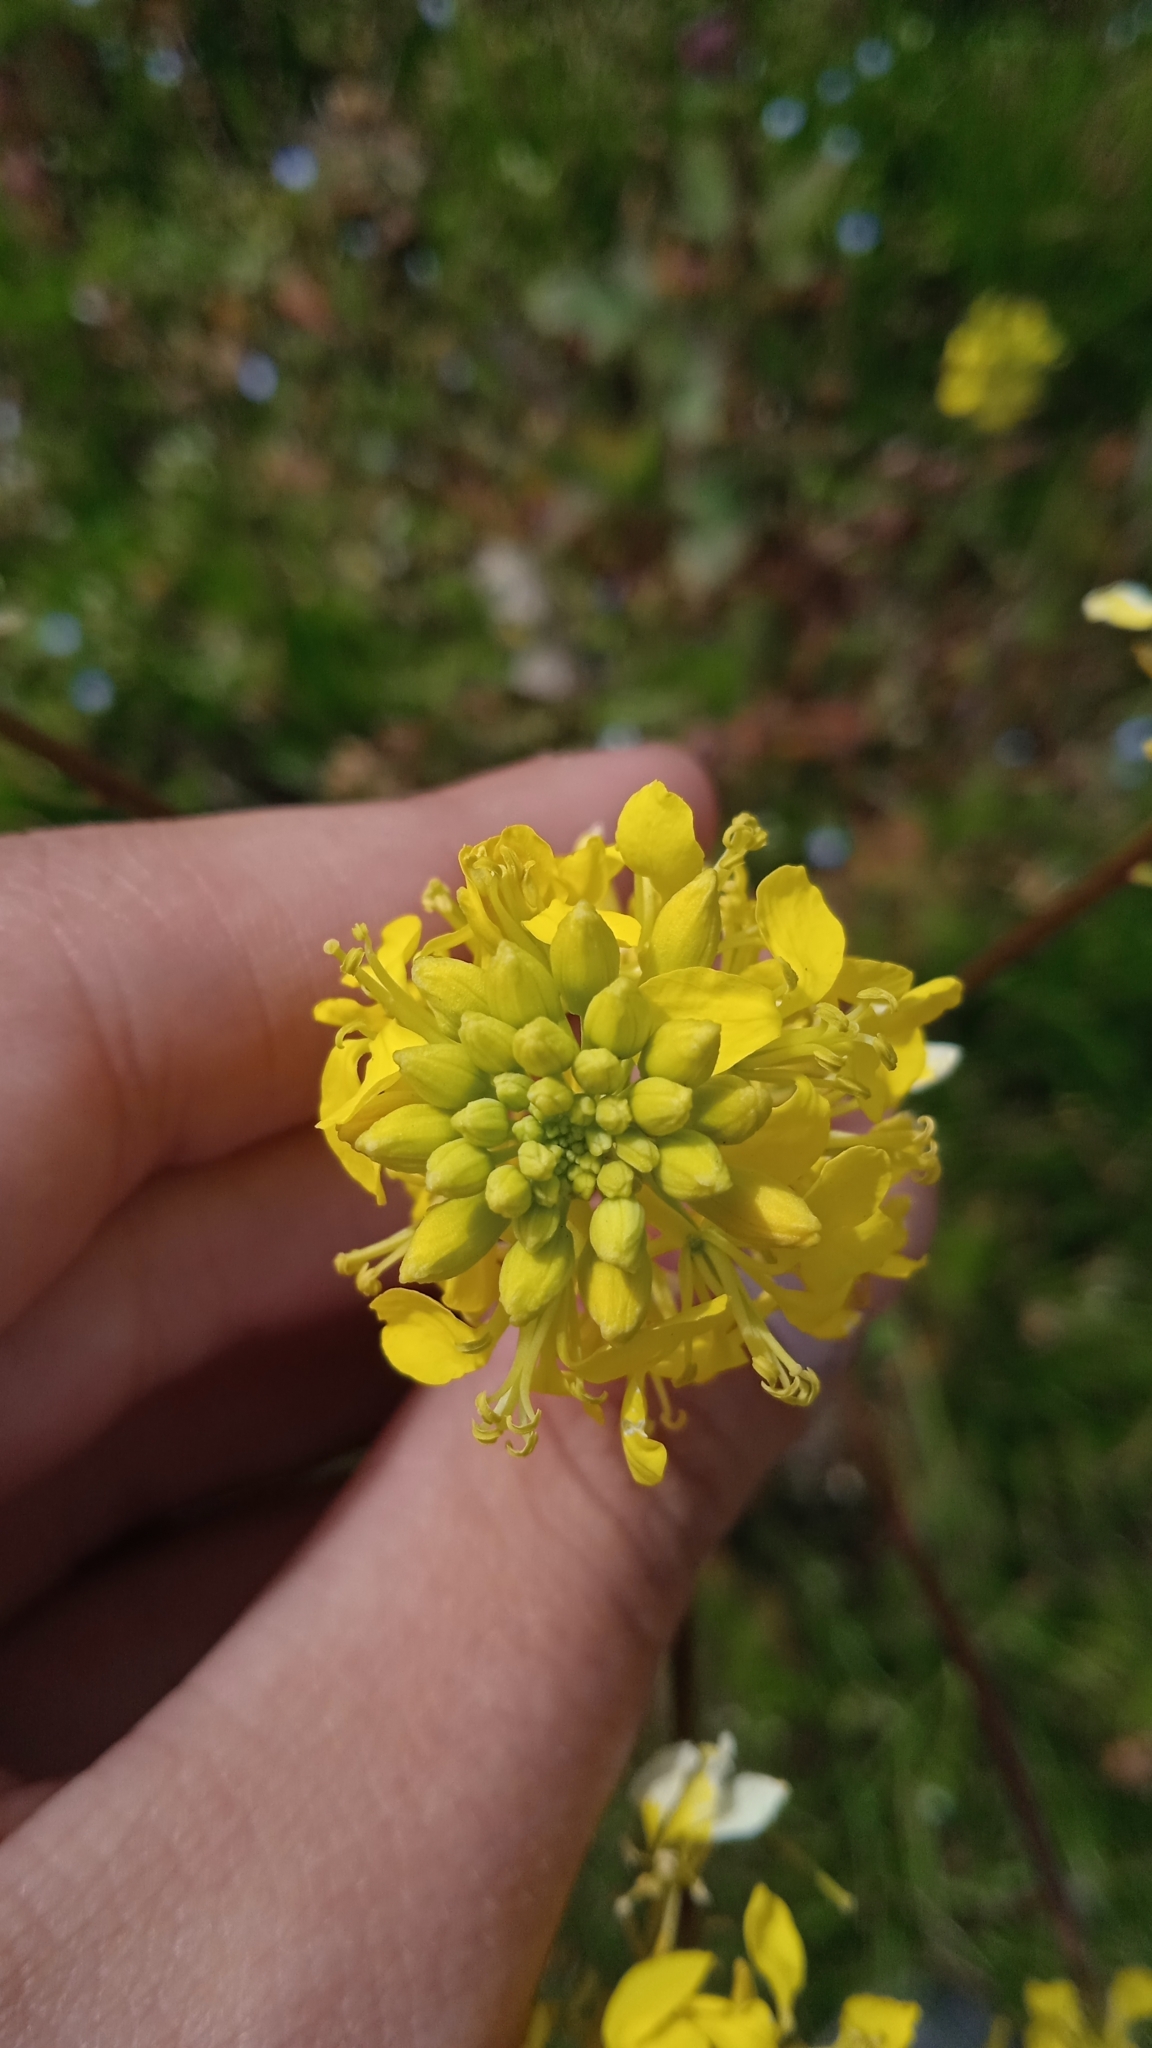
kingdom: Plantae
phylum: Tracheophyta
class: Magnoliopsida
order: Brassicales
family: Brassicaceae
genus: Sinapis
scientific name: Sinapis arvensis
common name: Charlock
